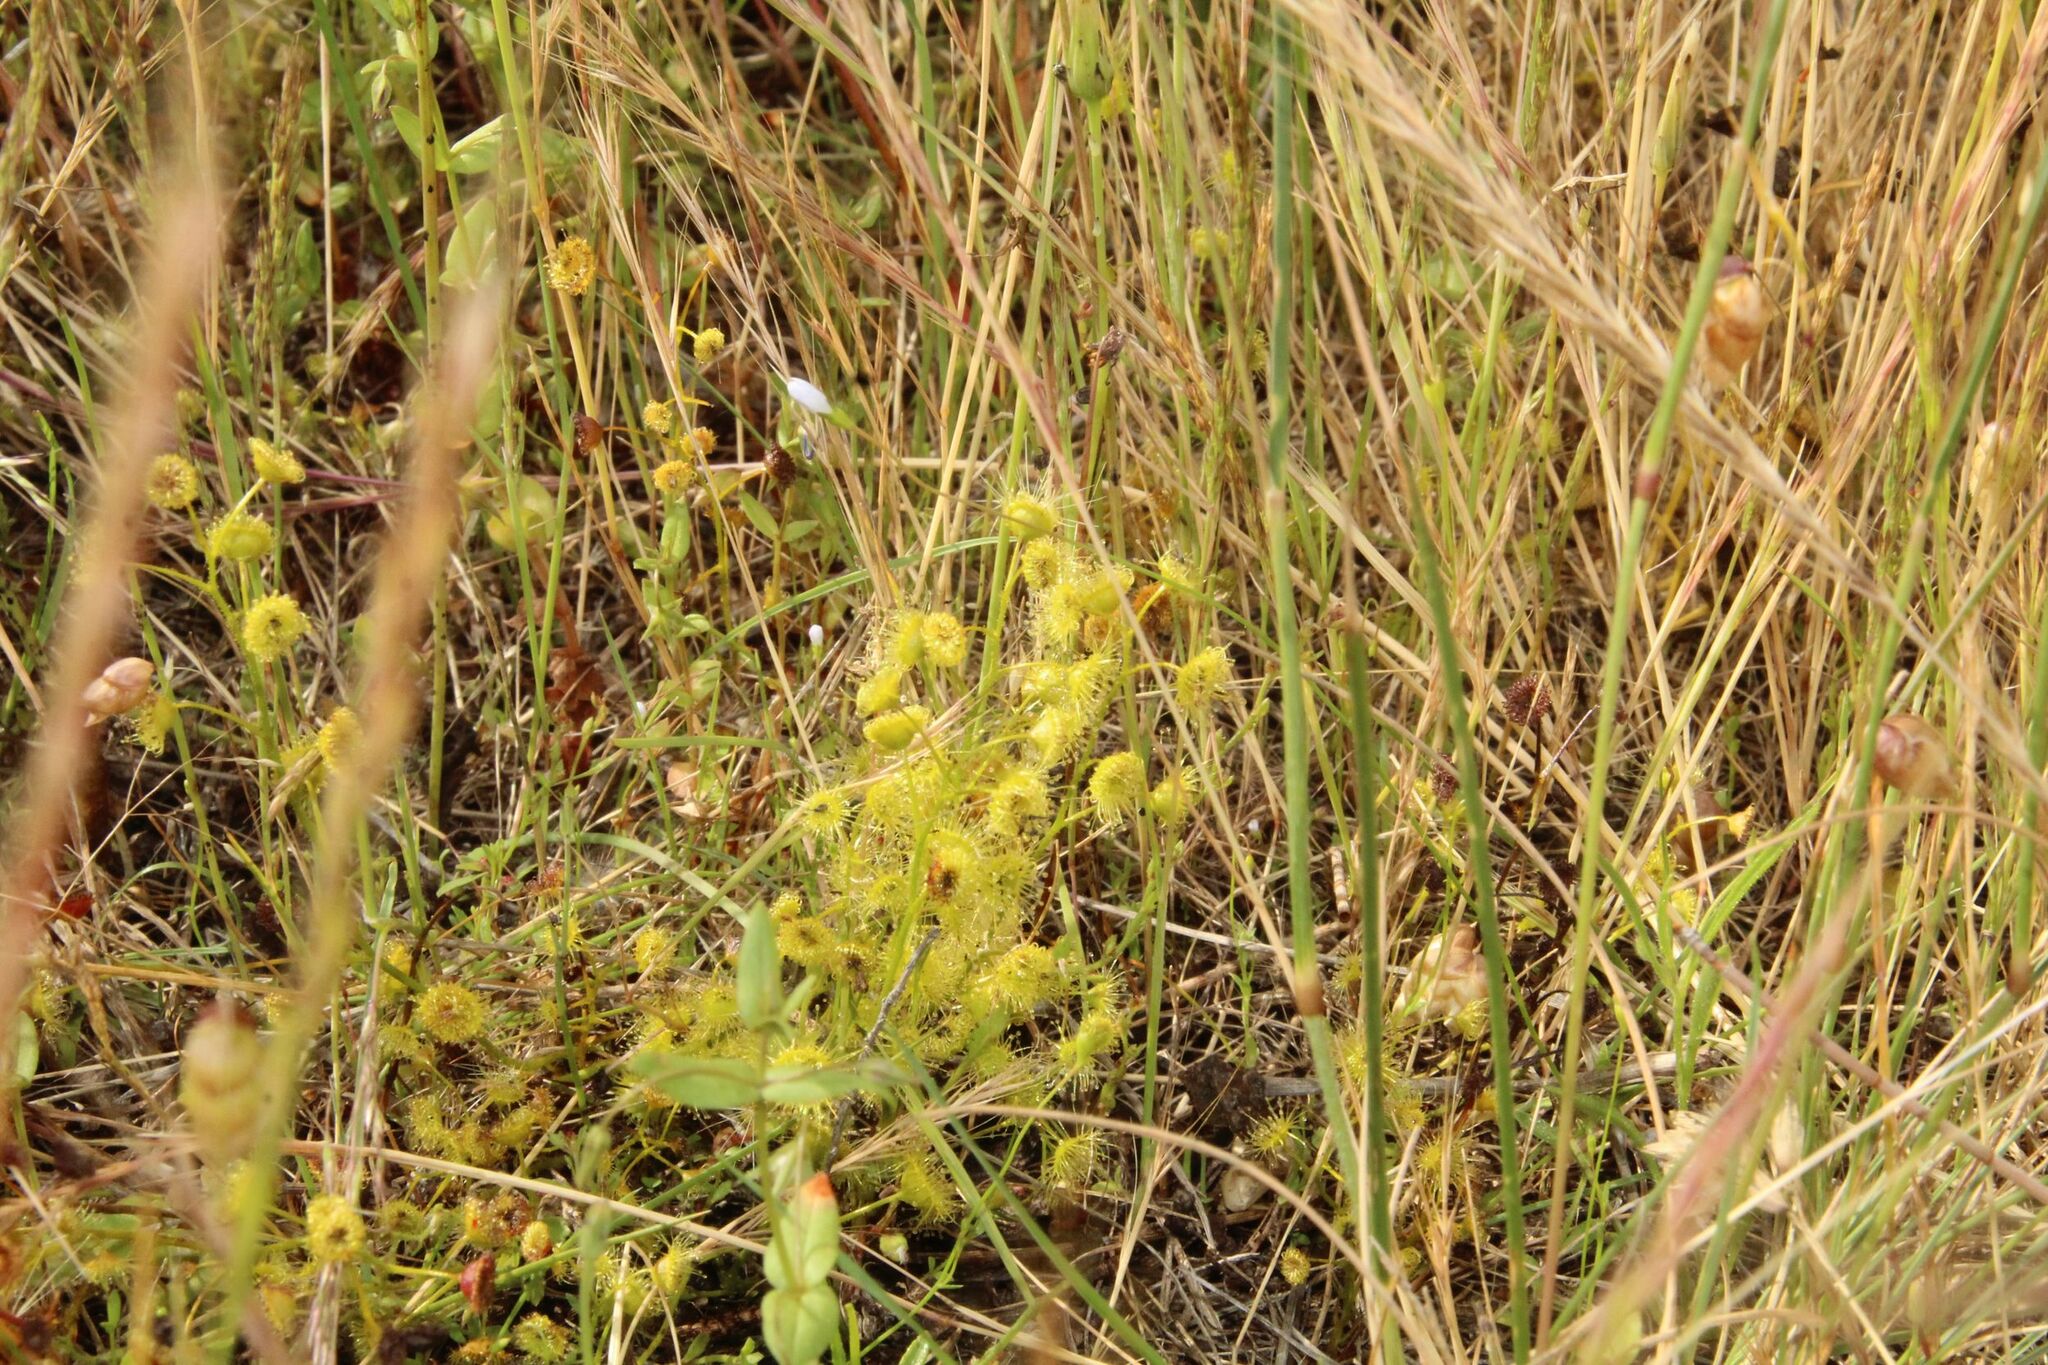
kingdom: Plantae
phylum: Tracheophyta
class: Magnoliopsida
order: Caryophyllales
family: Droseraceae
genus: Drosera
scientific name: Drosera stricticaulis
